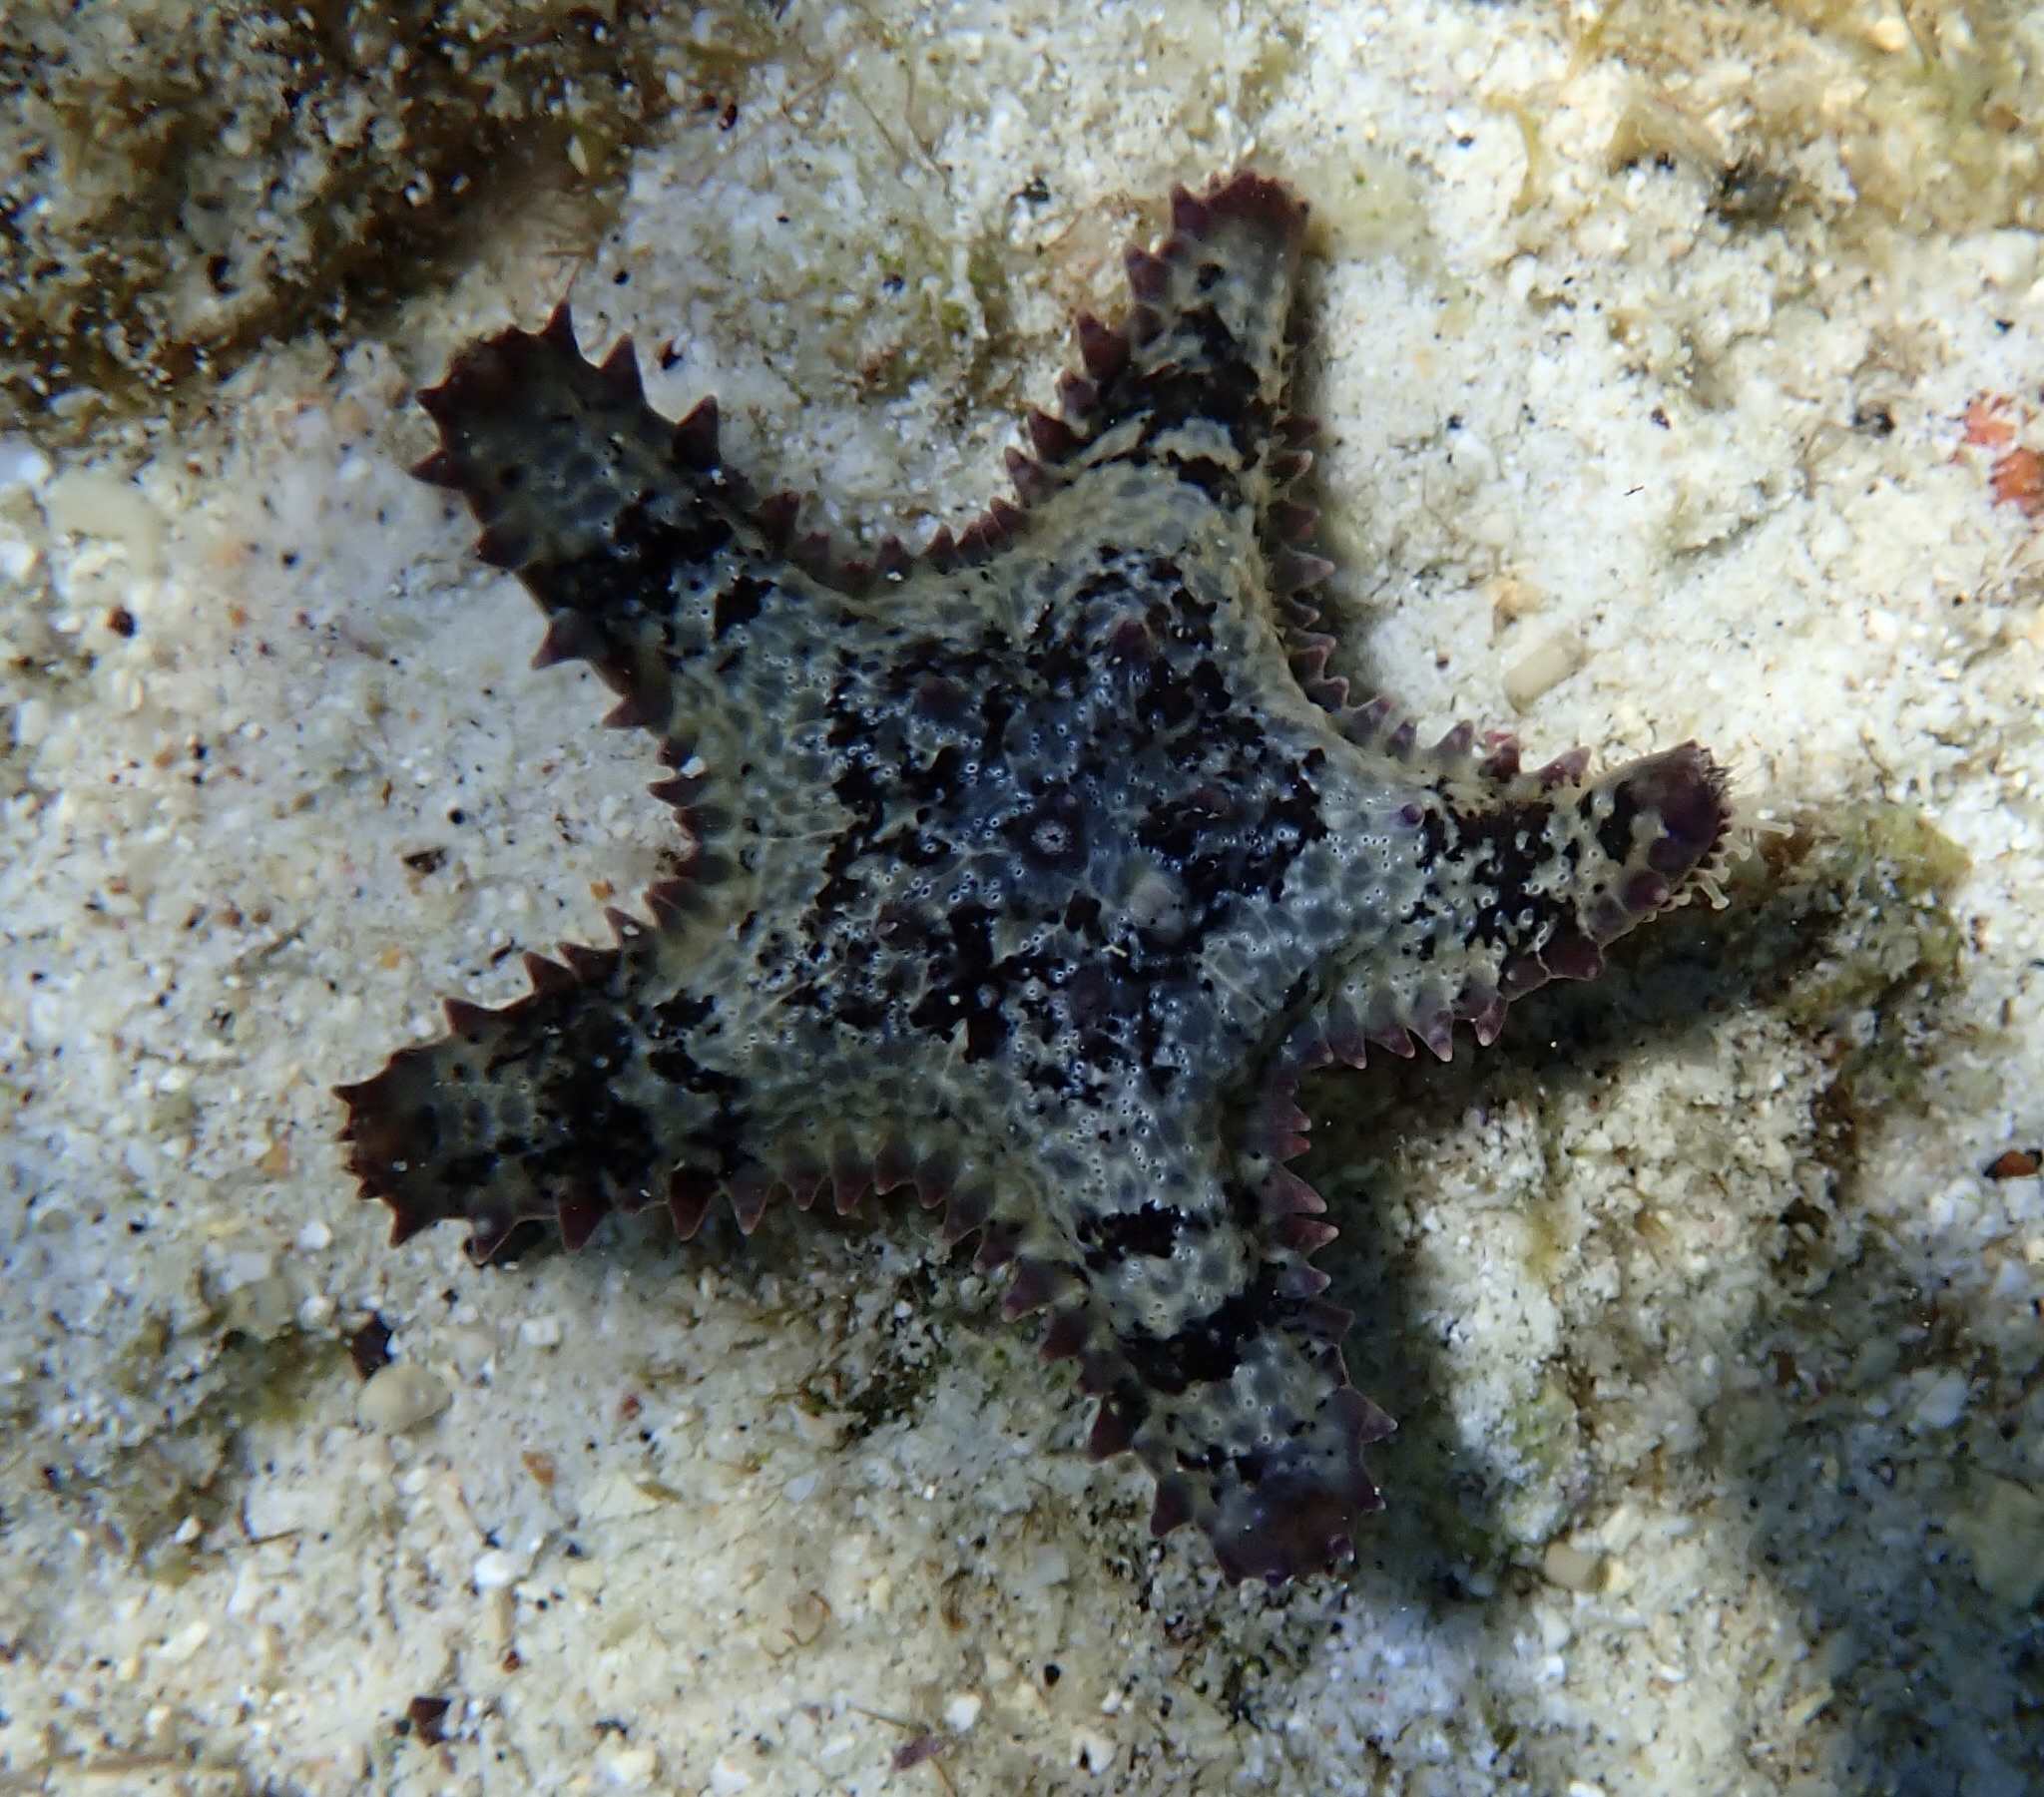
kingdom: Animalia
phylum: Echinodermata
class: Asteroidea
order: Valvatida
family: Asteropseidae
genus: Asteropsis
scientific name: Asteropsis carinifera
